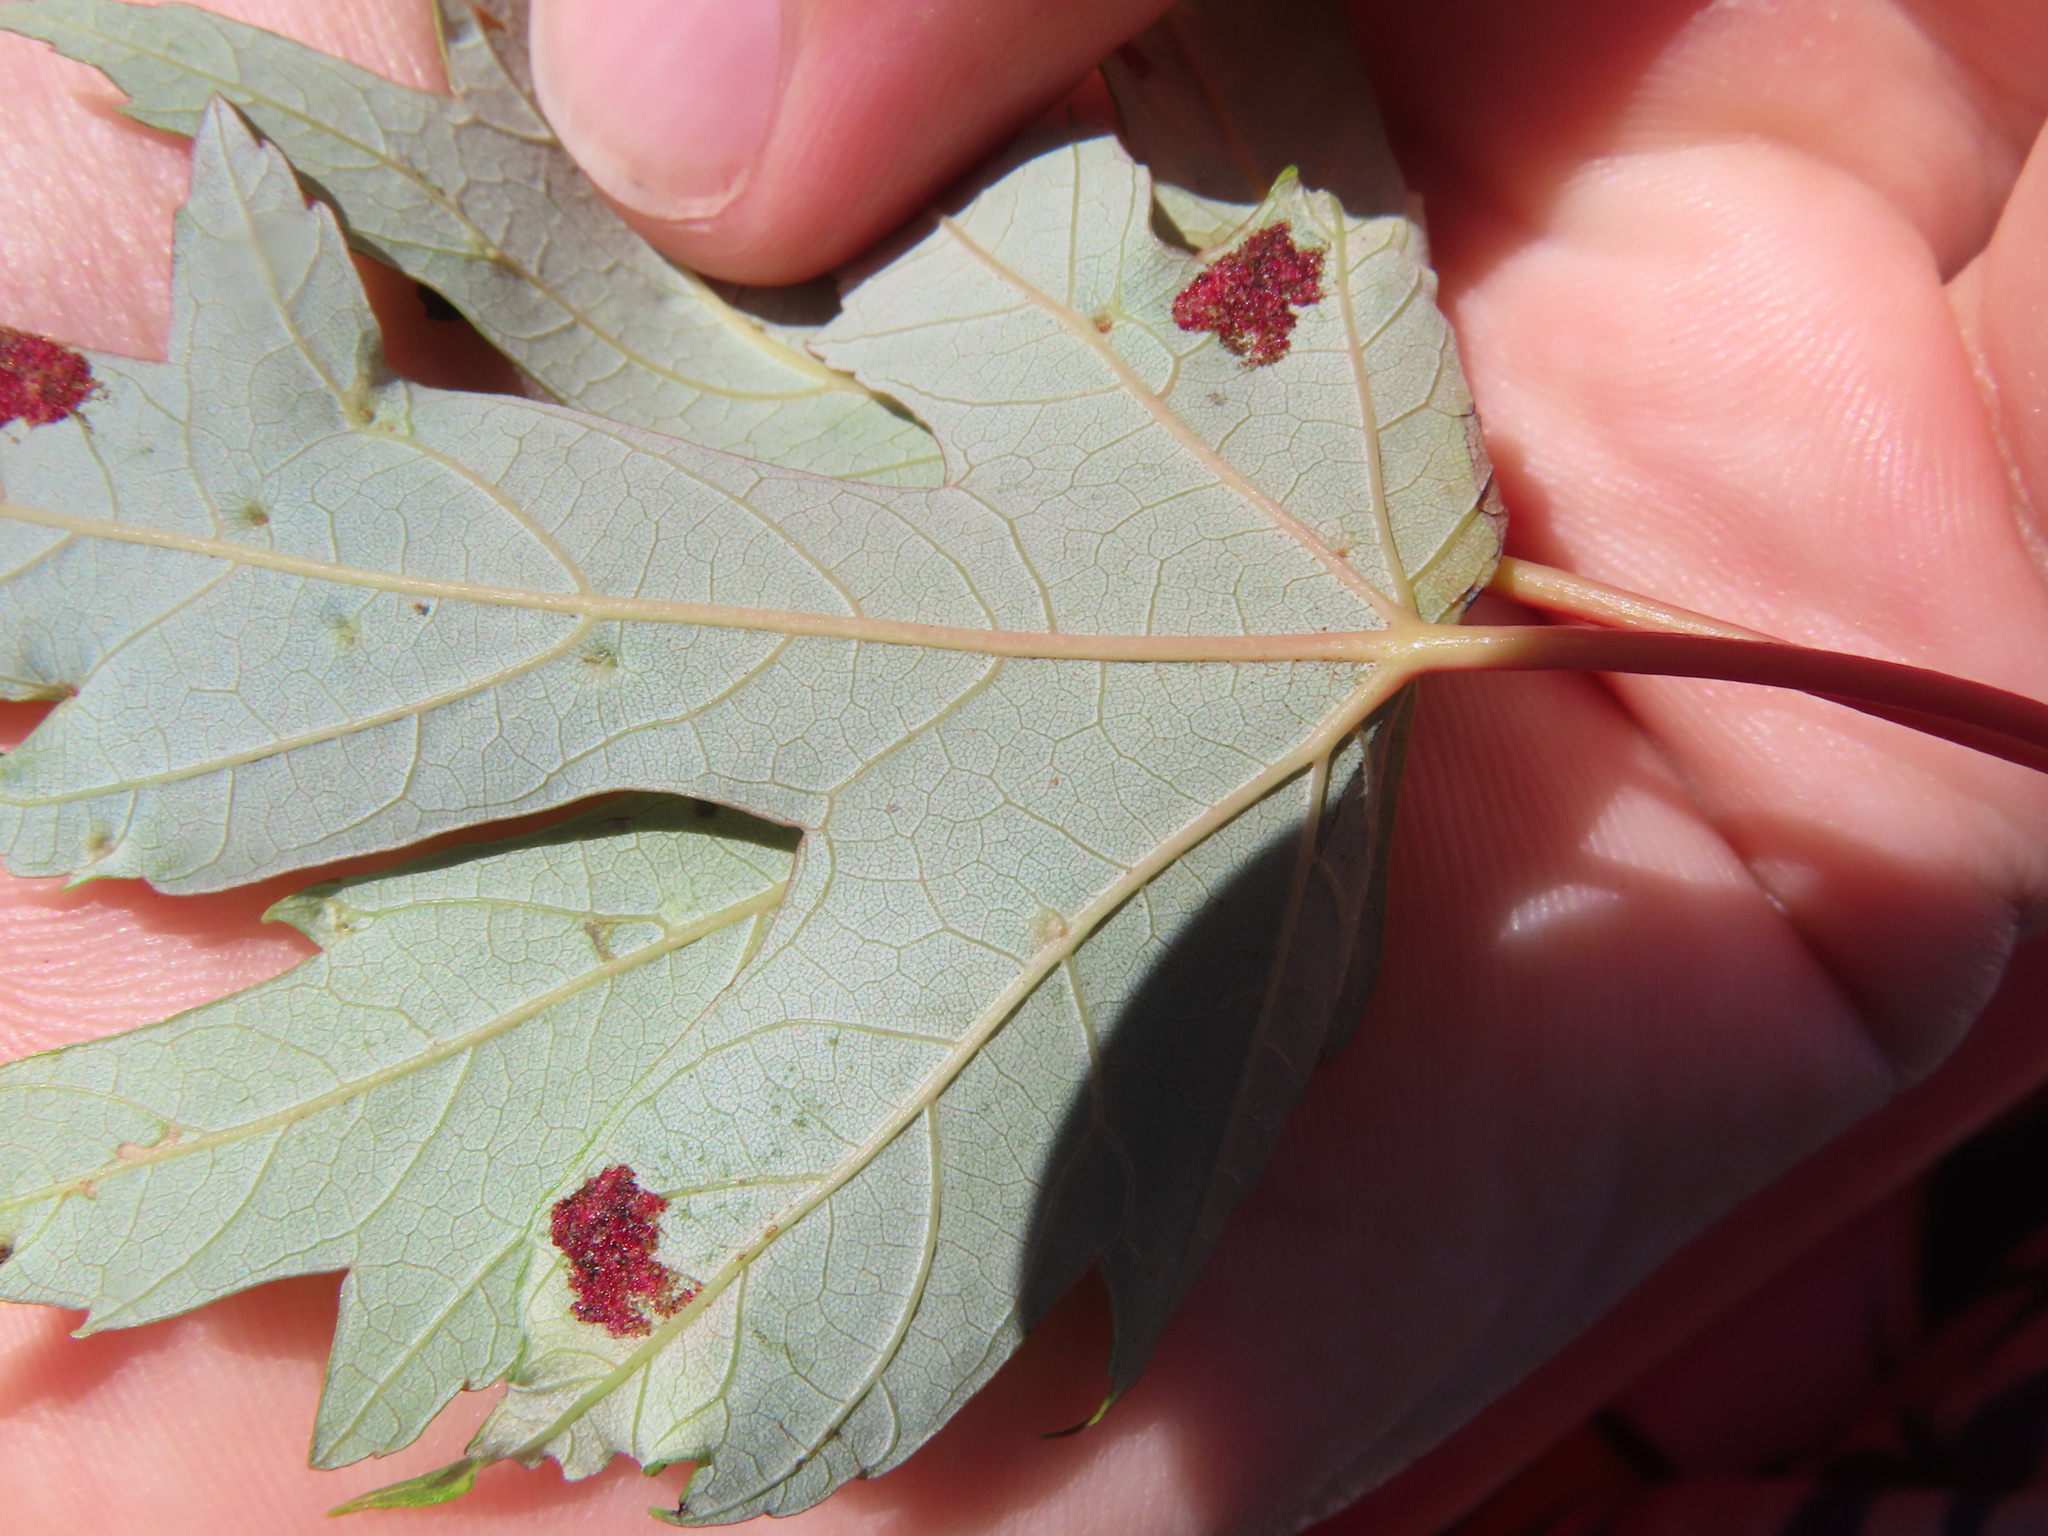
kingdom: Animalia
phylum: Arthropoda
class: Arachnida
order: Trombidiformes
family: Eriophyidae
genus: Eriophyes
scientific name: Eriophyes
